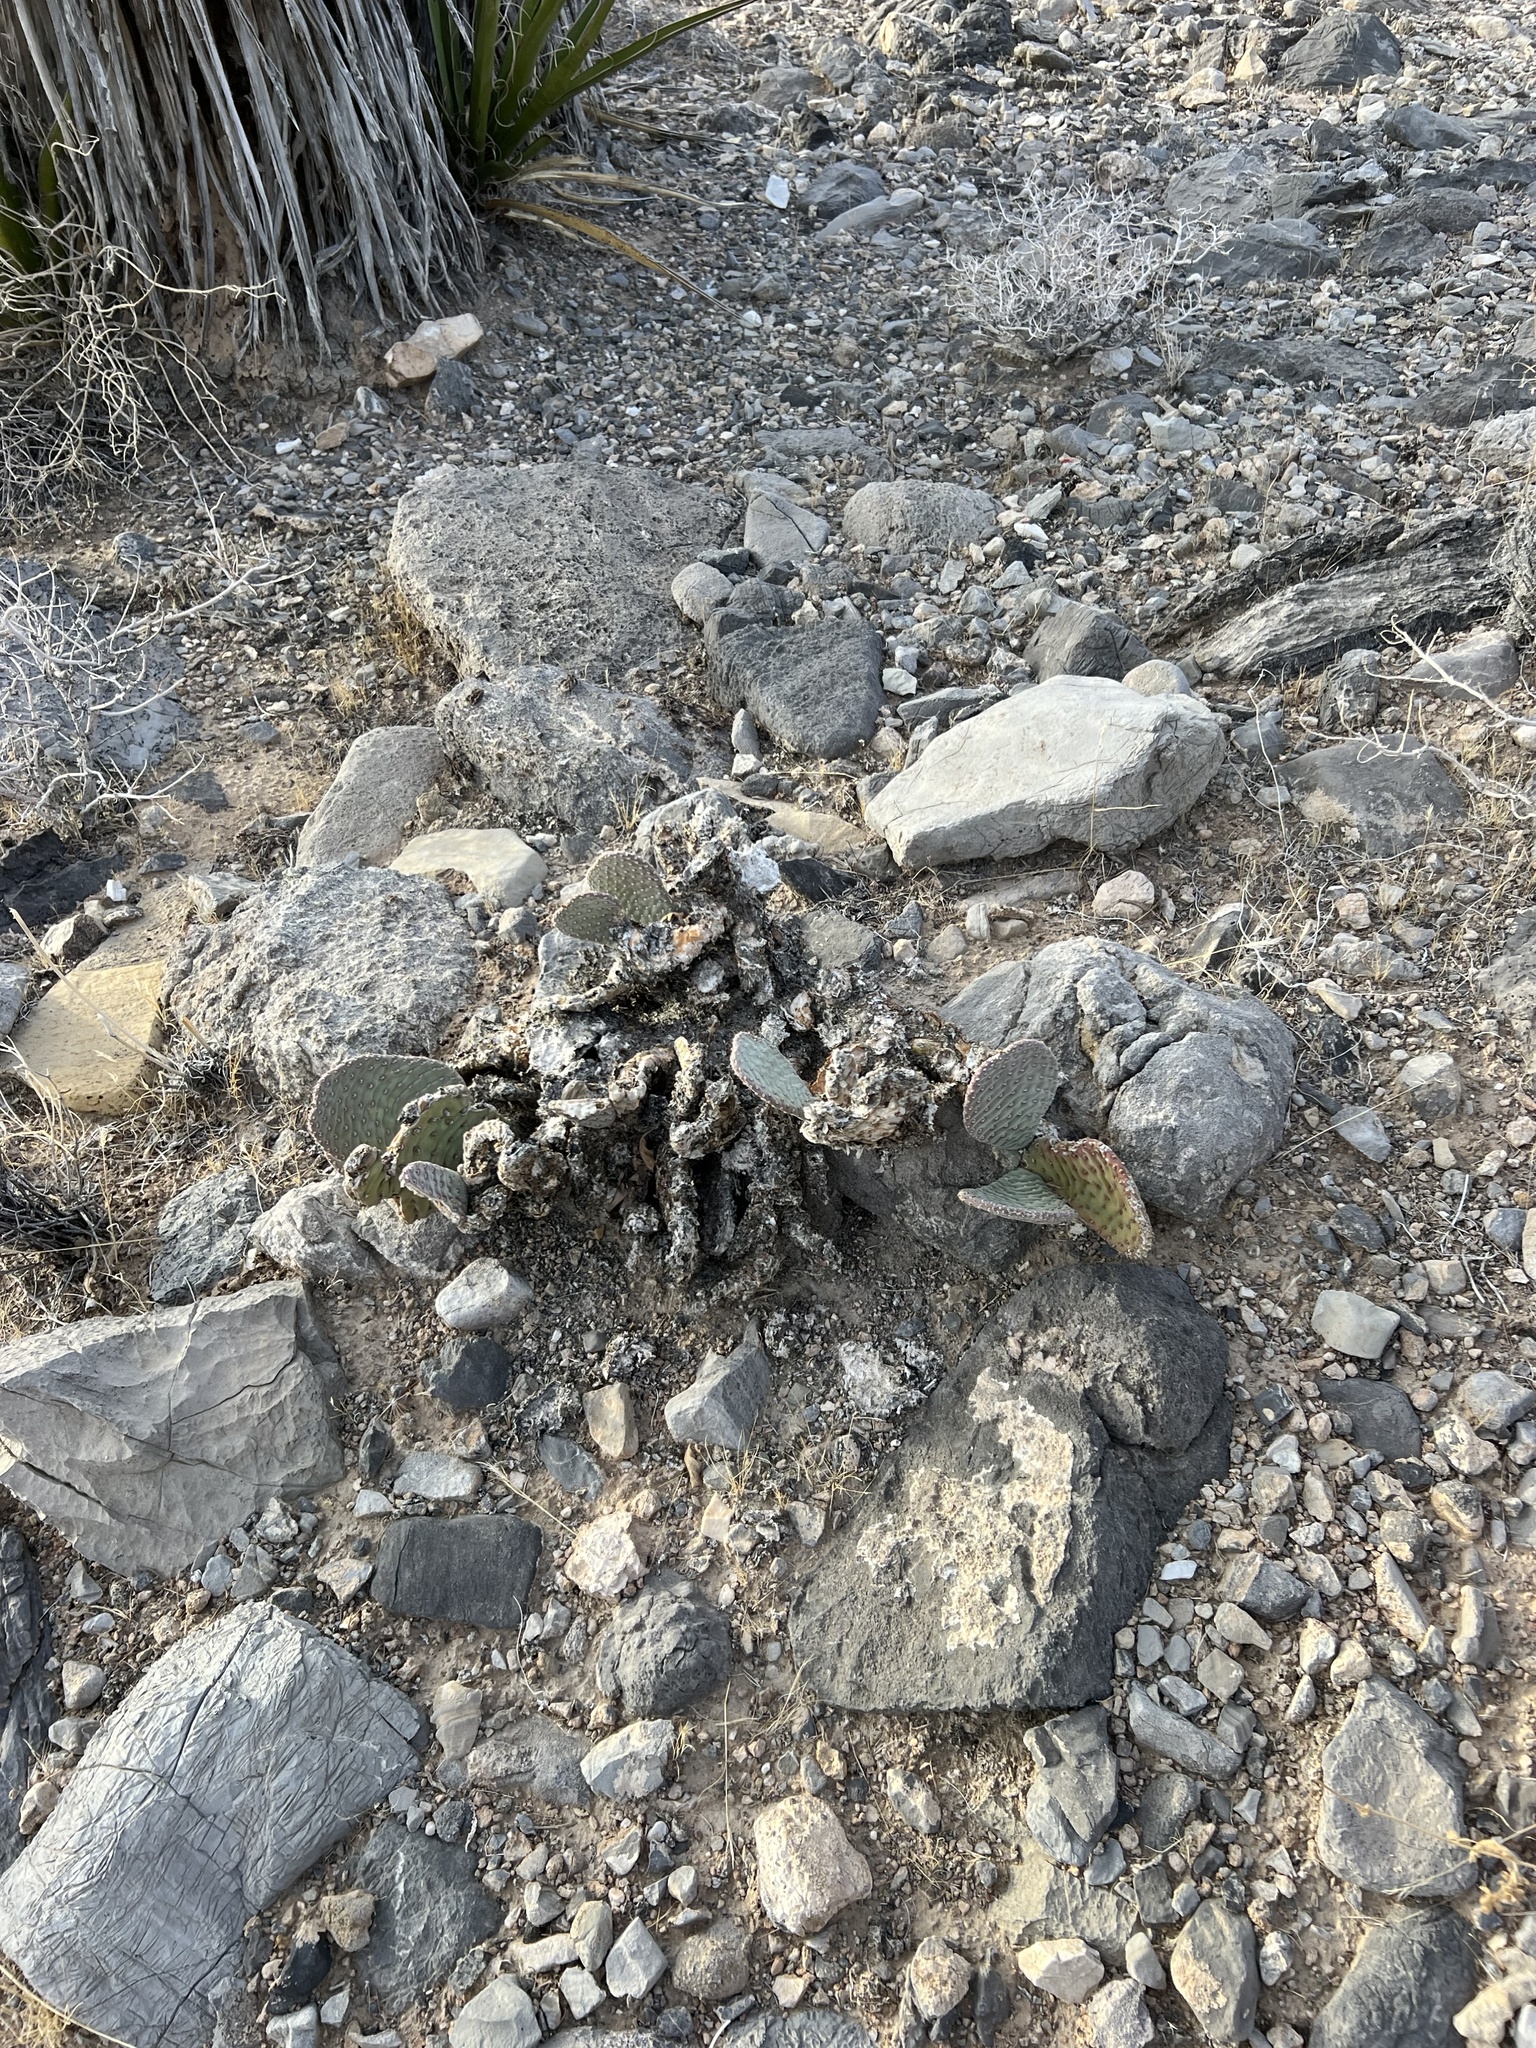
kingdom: Plantae
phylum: Tracheophyta
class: Magnoliopsida
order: Caryophyllales
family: Cactaceae
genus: Opuntia
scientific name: Opuntia basilaris
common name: Beavertail prickly-pear
